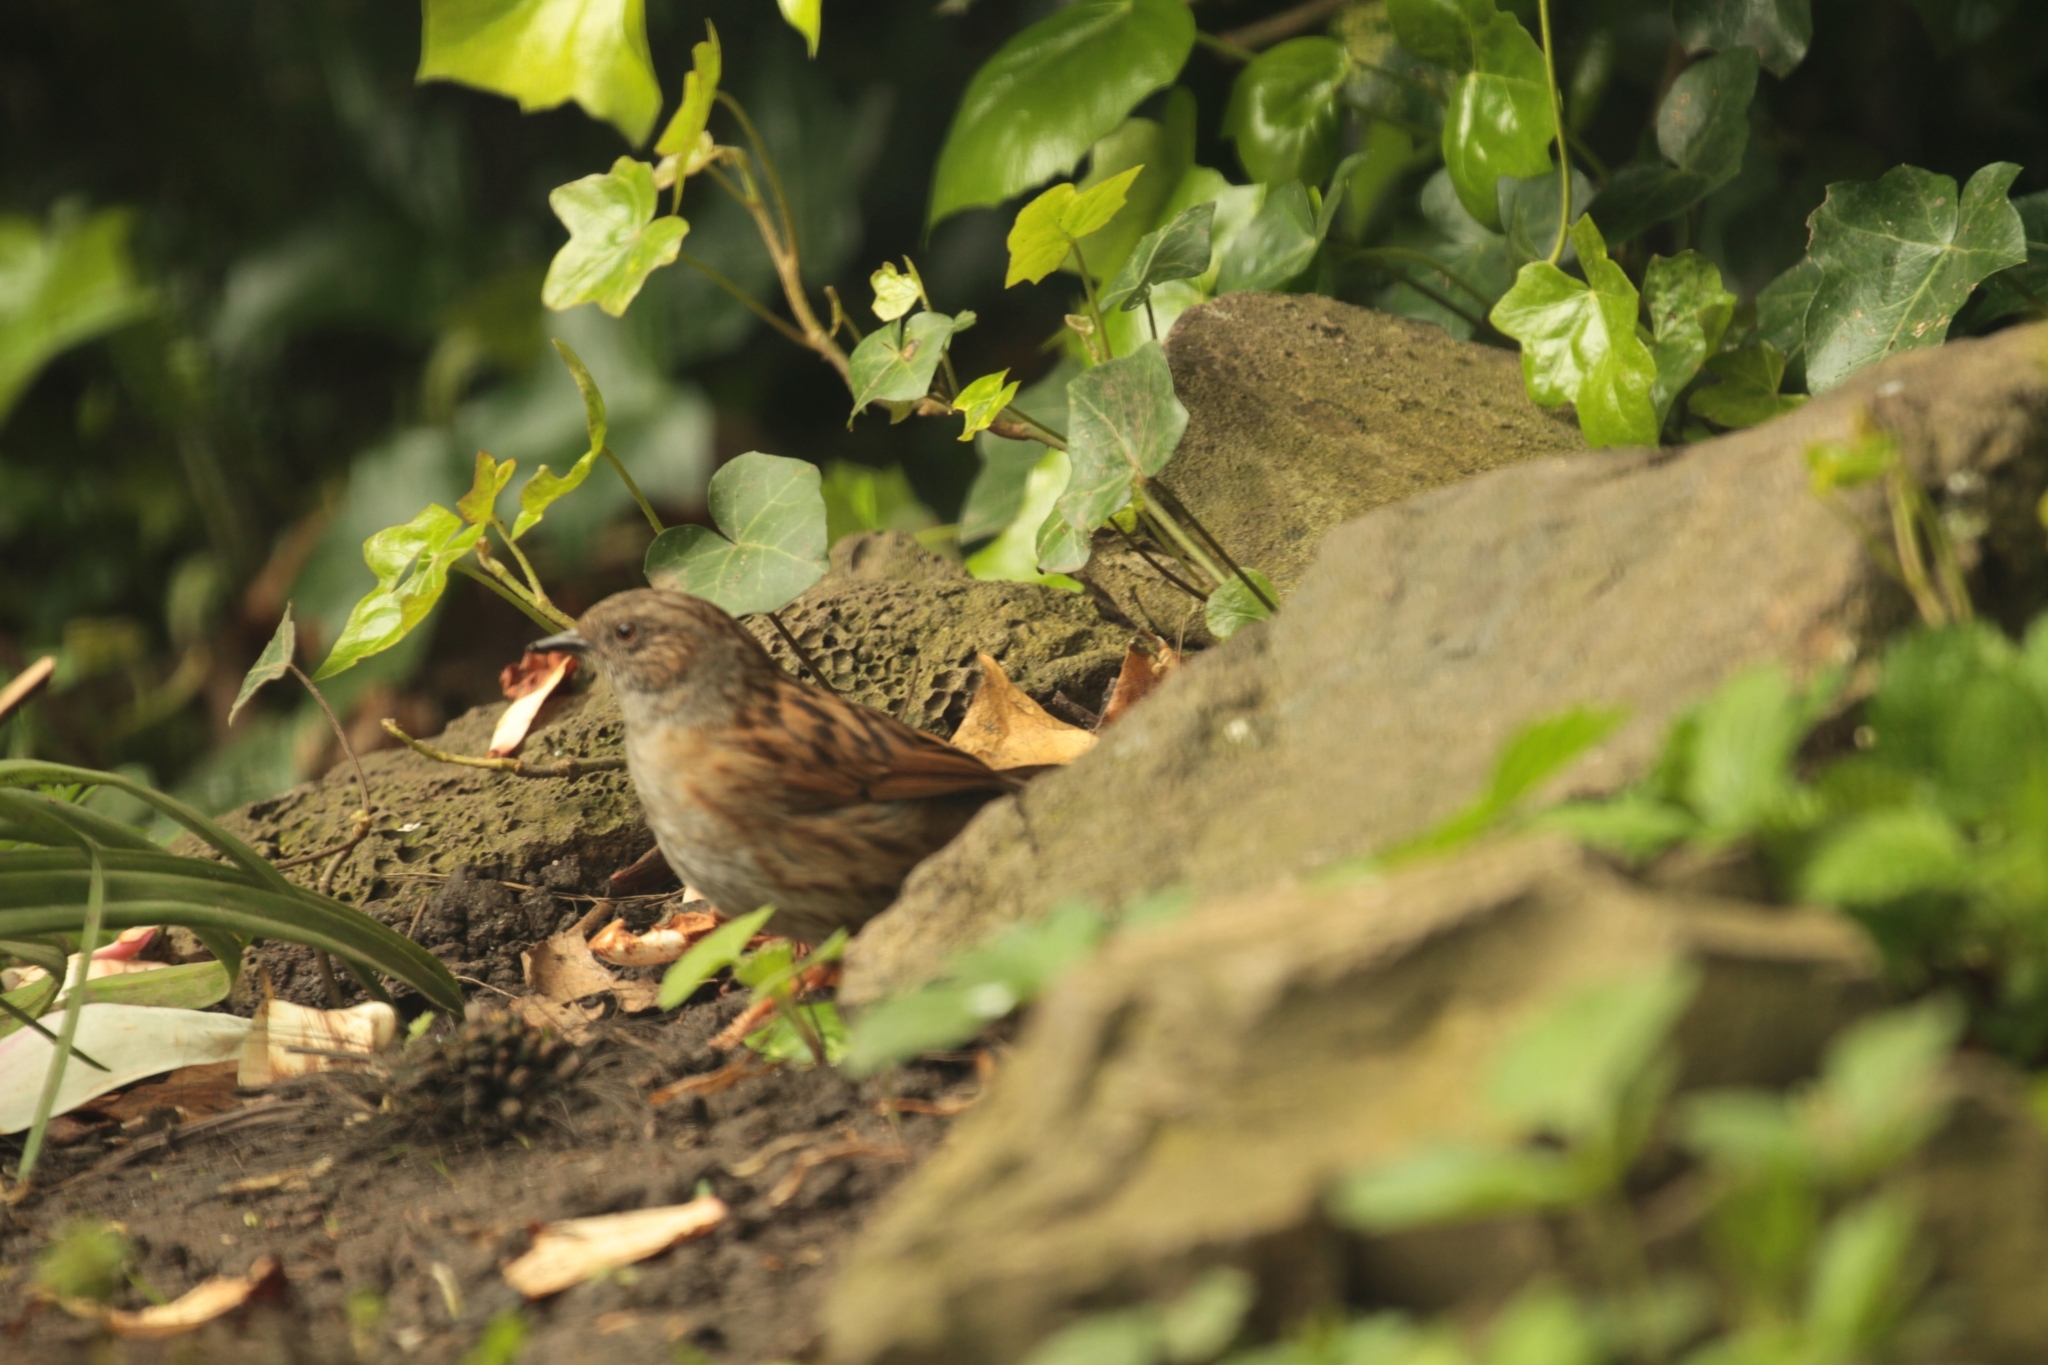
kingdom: Animalia
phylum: Chordata
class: Aves
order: Passeriformes
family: Prunellidae
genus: Prunella
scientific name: Prunella modularis
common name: Dunnock
